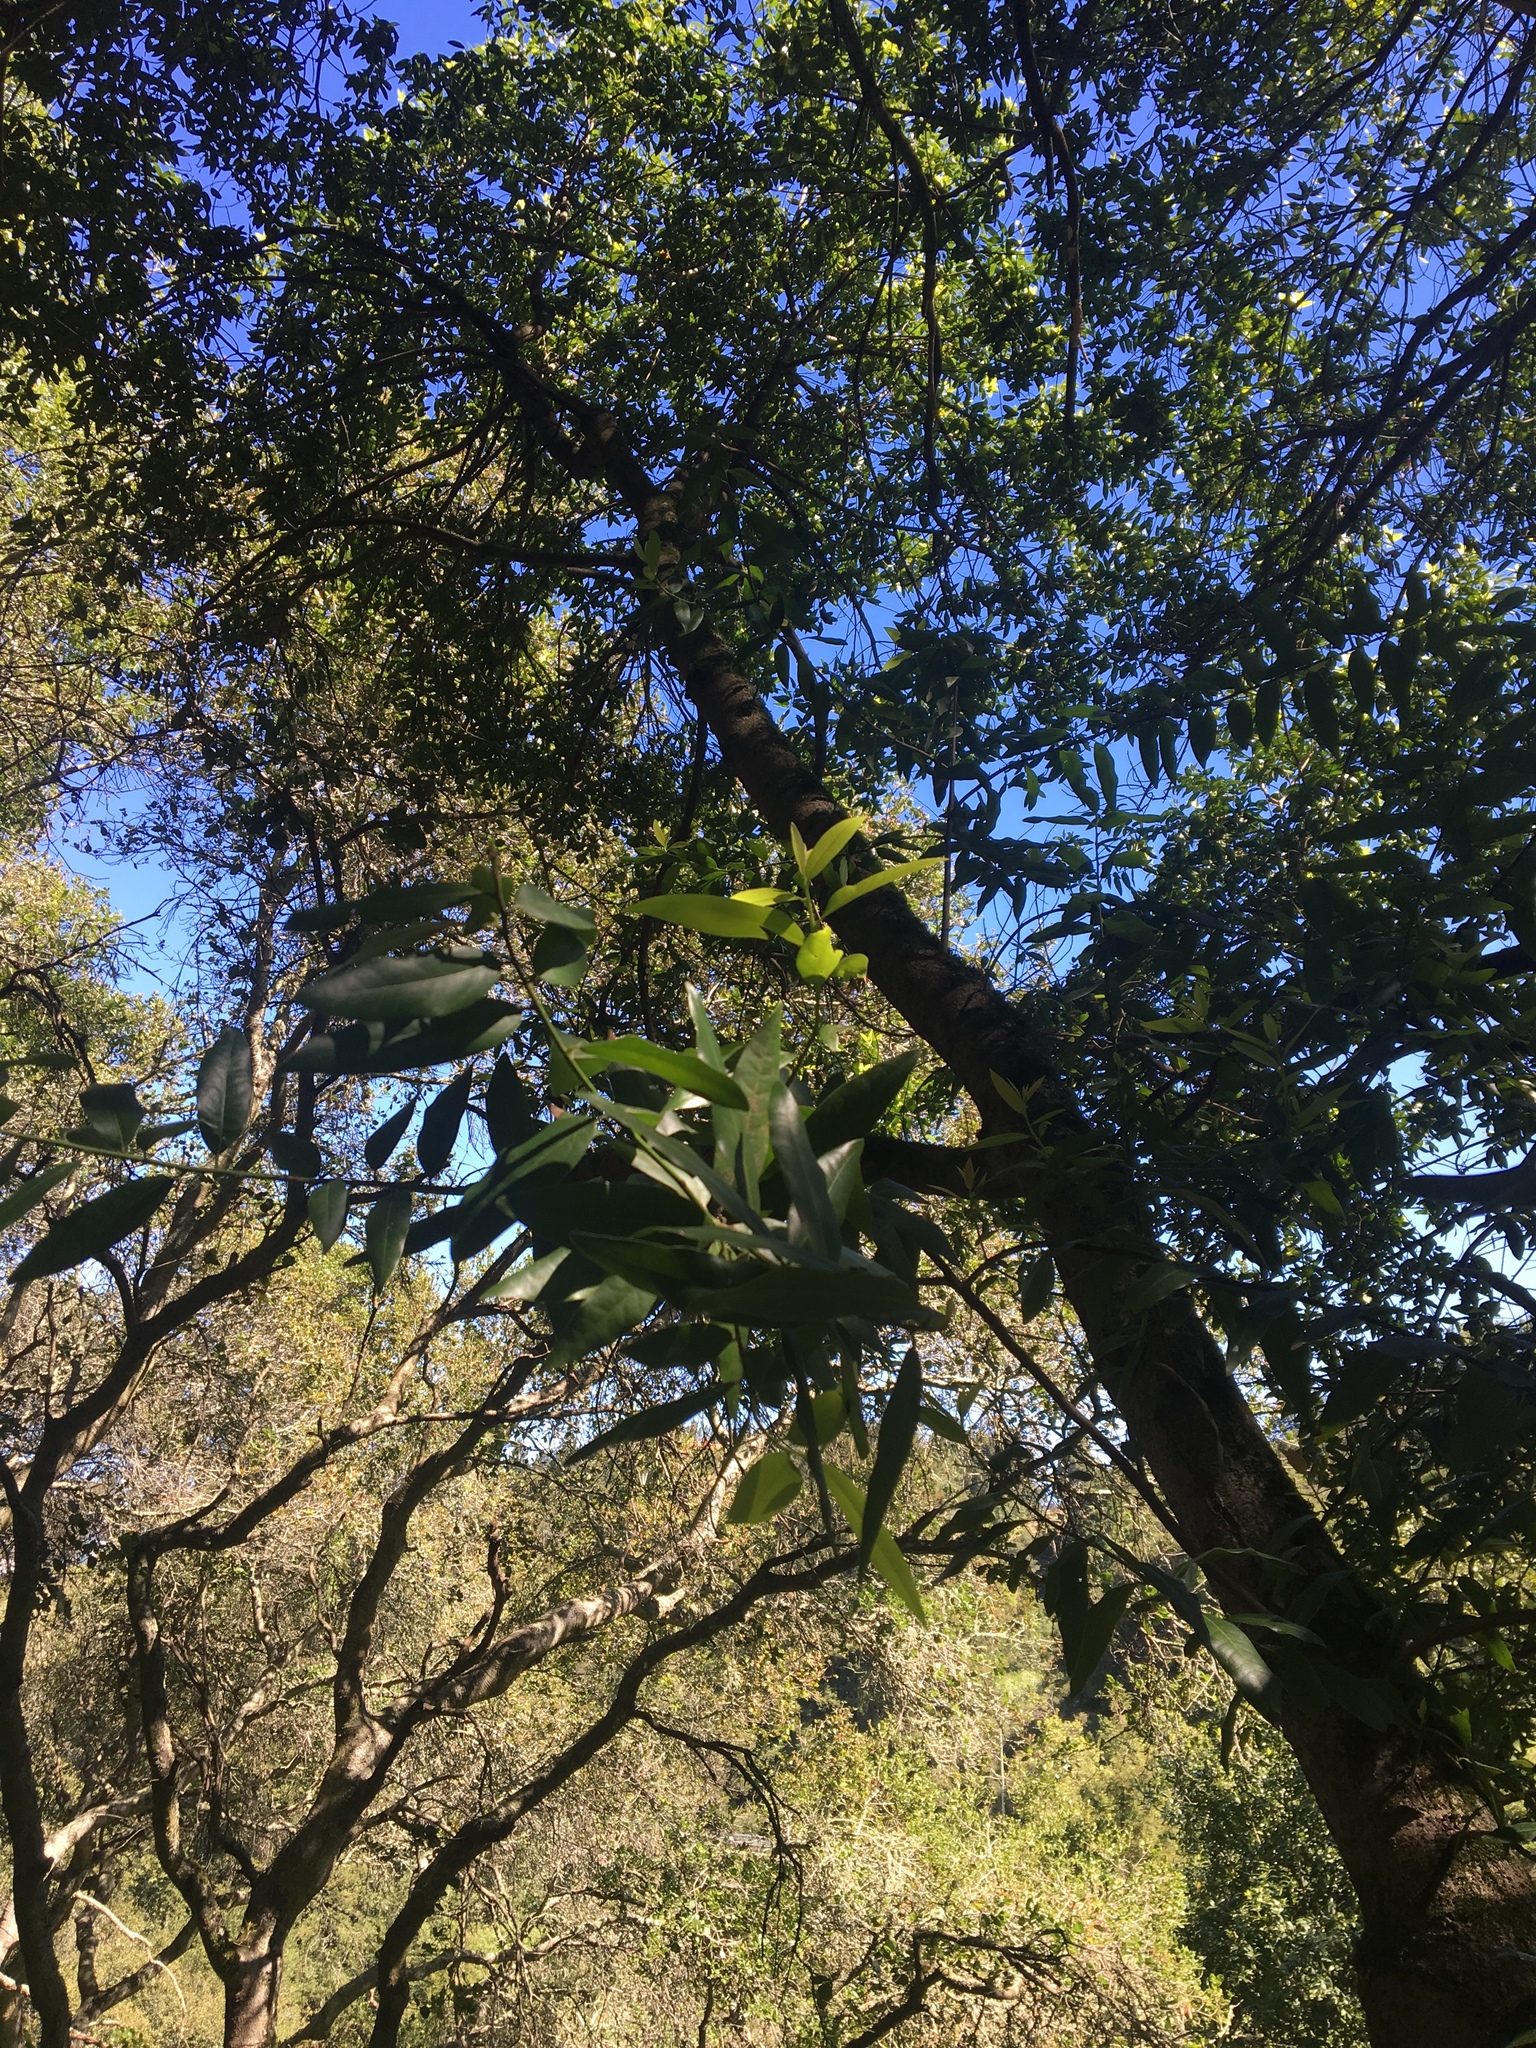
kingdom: Plantae
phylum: Tracheophyta
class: Magnoliopsida
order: Laurales
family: Lauraceae
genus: Umbellularia
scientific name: Umbellularia californica
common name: California bay
